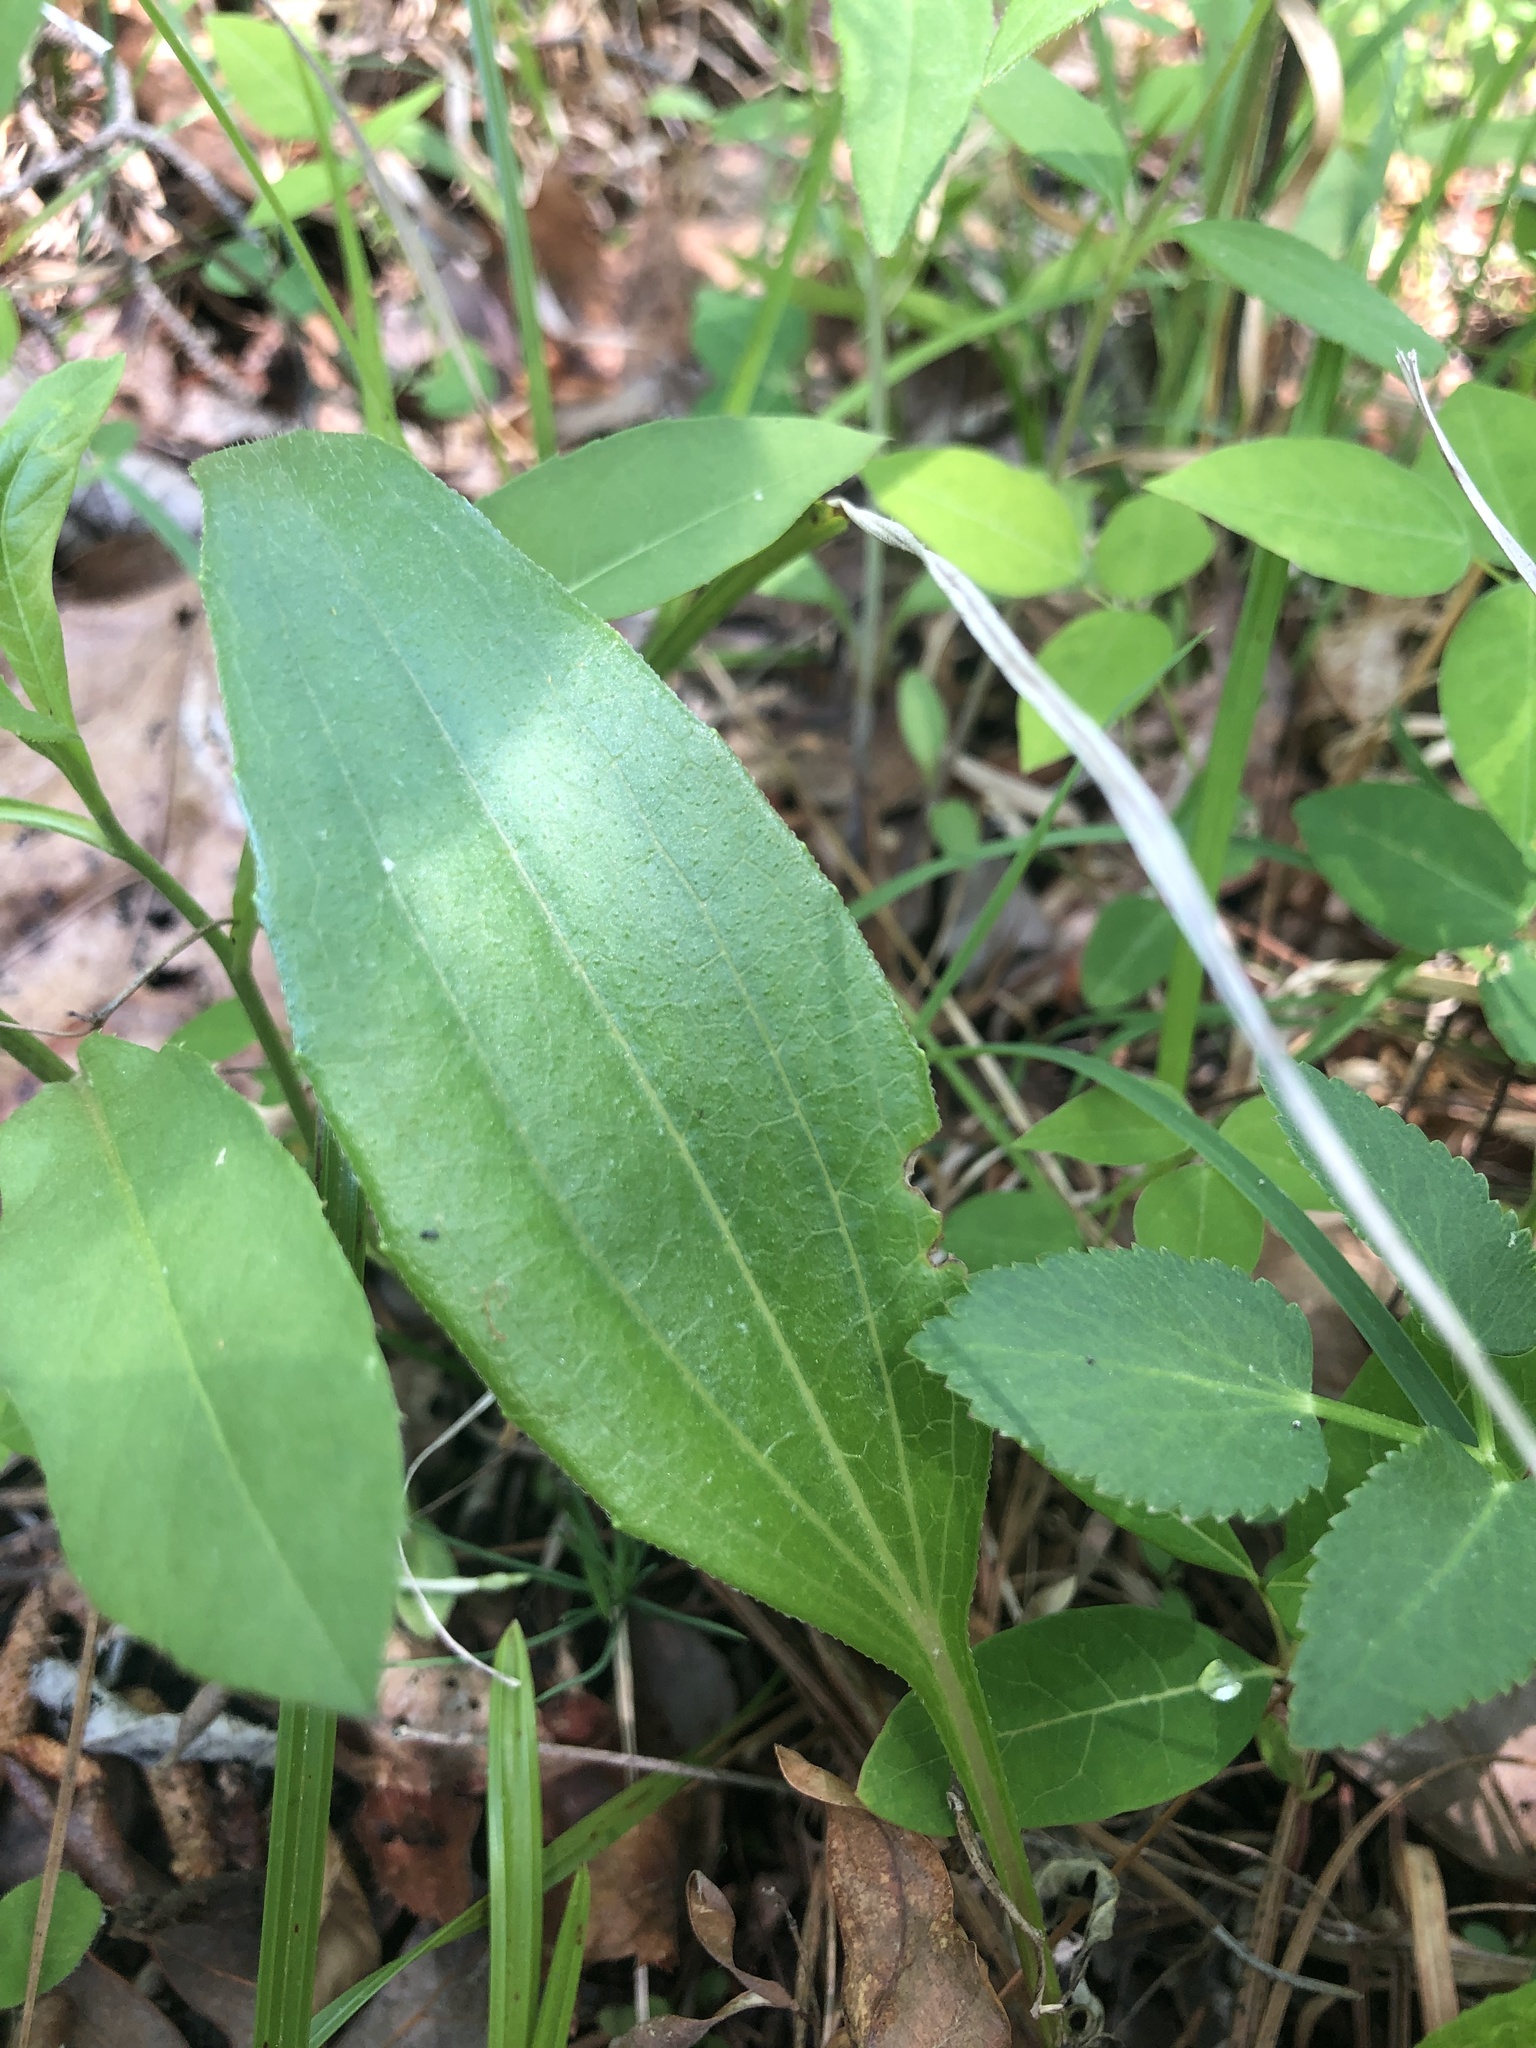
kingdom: Plantae
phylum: Tracheophyta
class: Magnoliopsida
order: Asterales
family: Asteraceae
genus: Echinacea
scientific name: Echinacea laevigata
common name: Smooth coneflower
